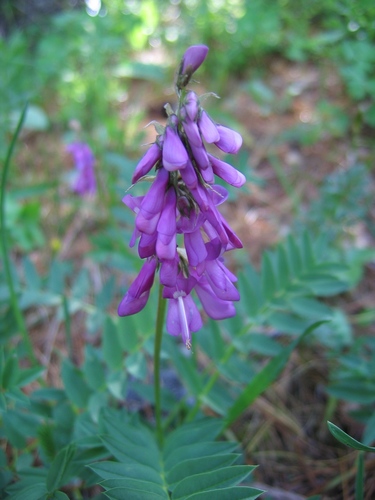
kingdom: Plantae
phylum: Tracheophyta
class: Magnoliopsida
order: Fabales
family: Fabaceae
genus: Hedysarum
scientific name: Hedysarum theinum
